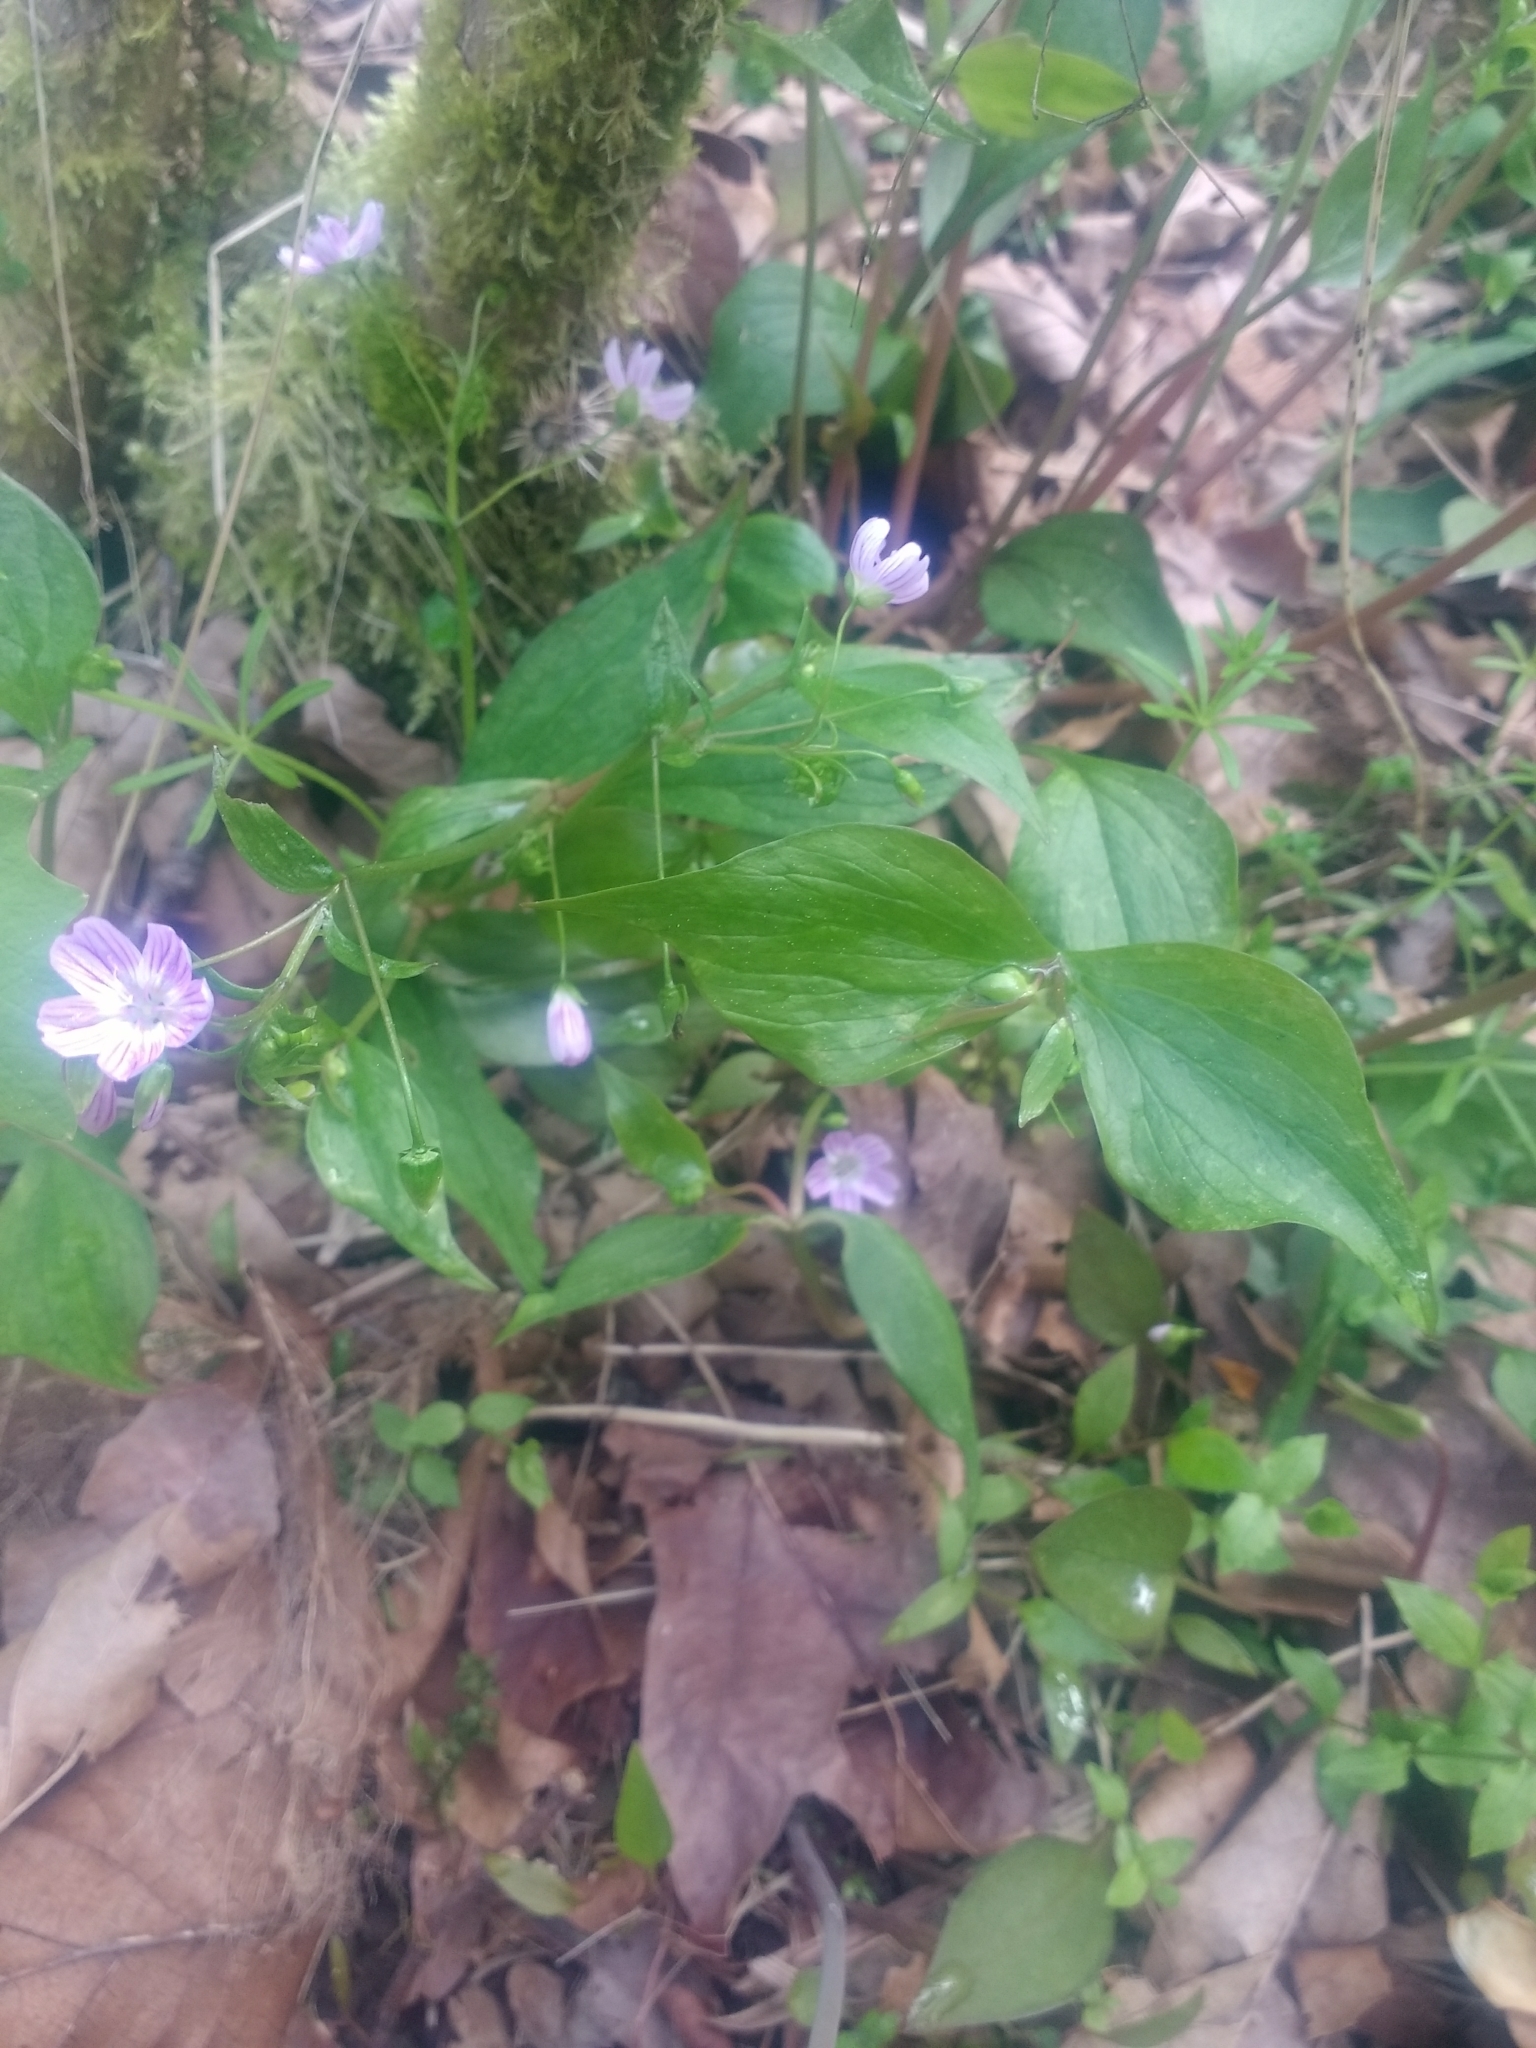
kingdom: Plantae
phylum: Tracheophyta
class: Magnoliopsida
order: Caryophyllales
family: Montiaceae
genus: Claytonia
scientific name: Claytonia sibirica
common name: Pink purslane
